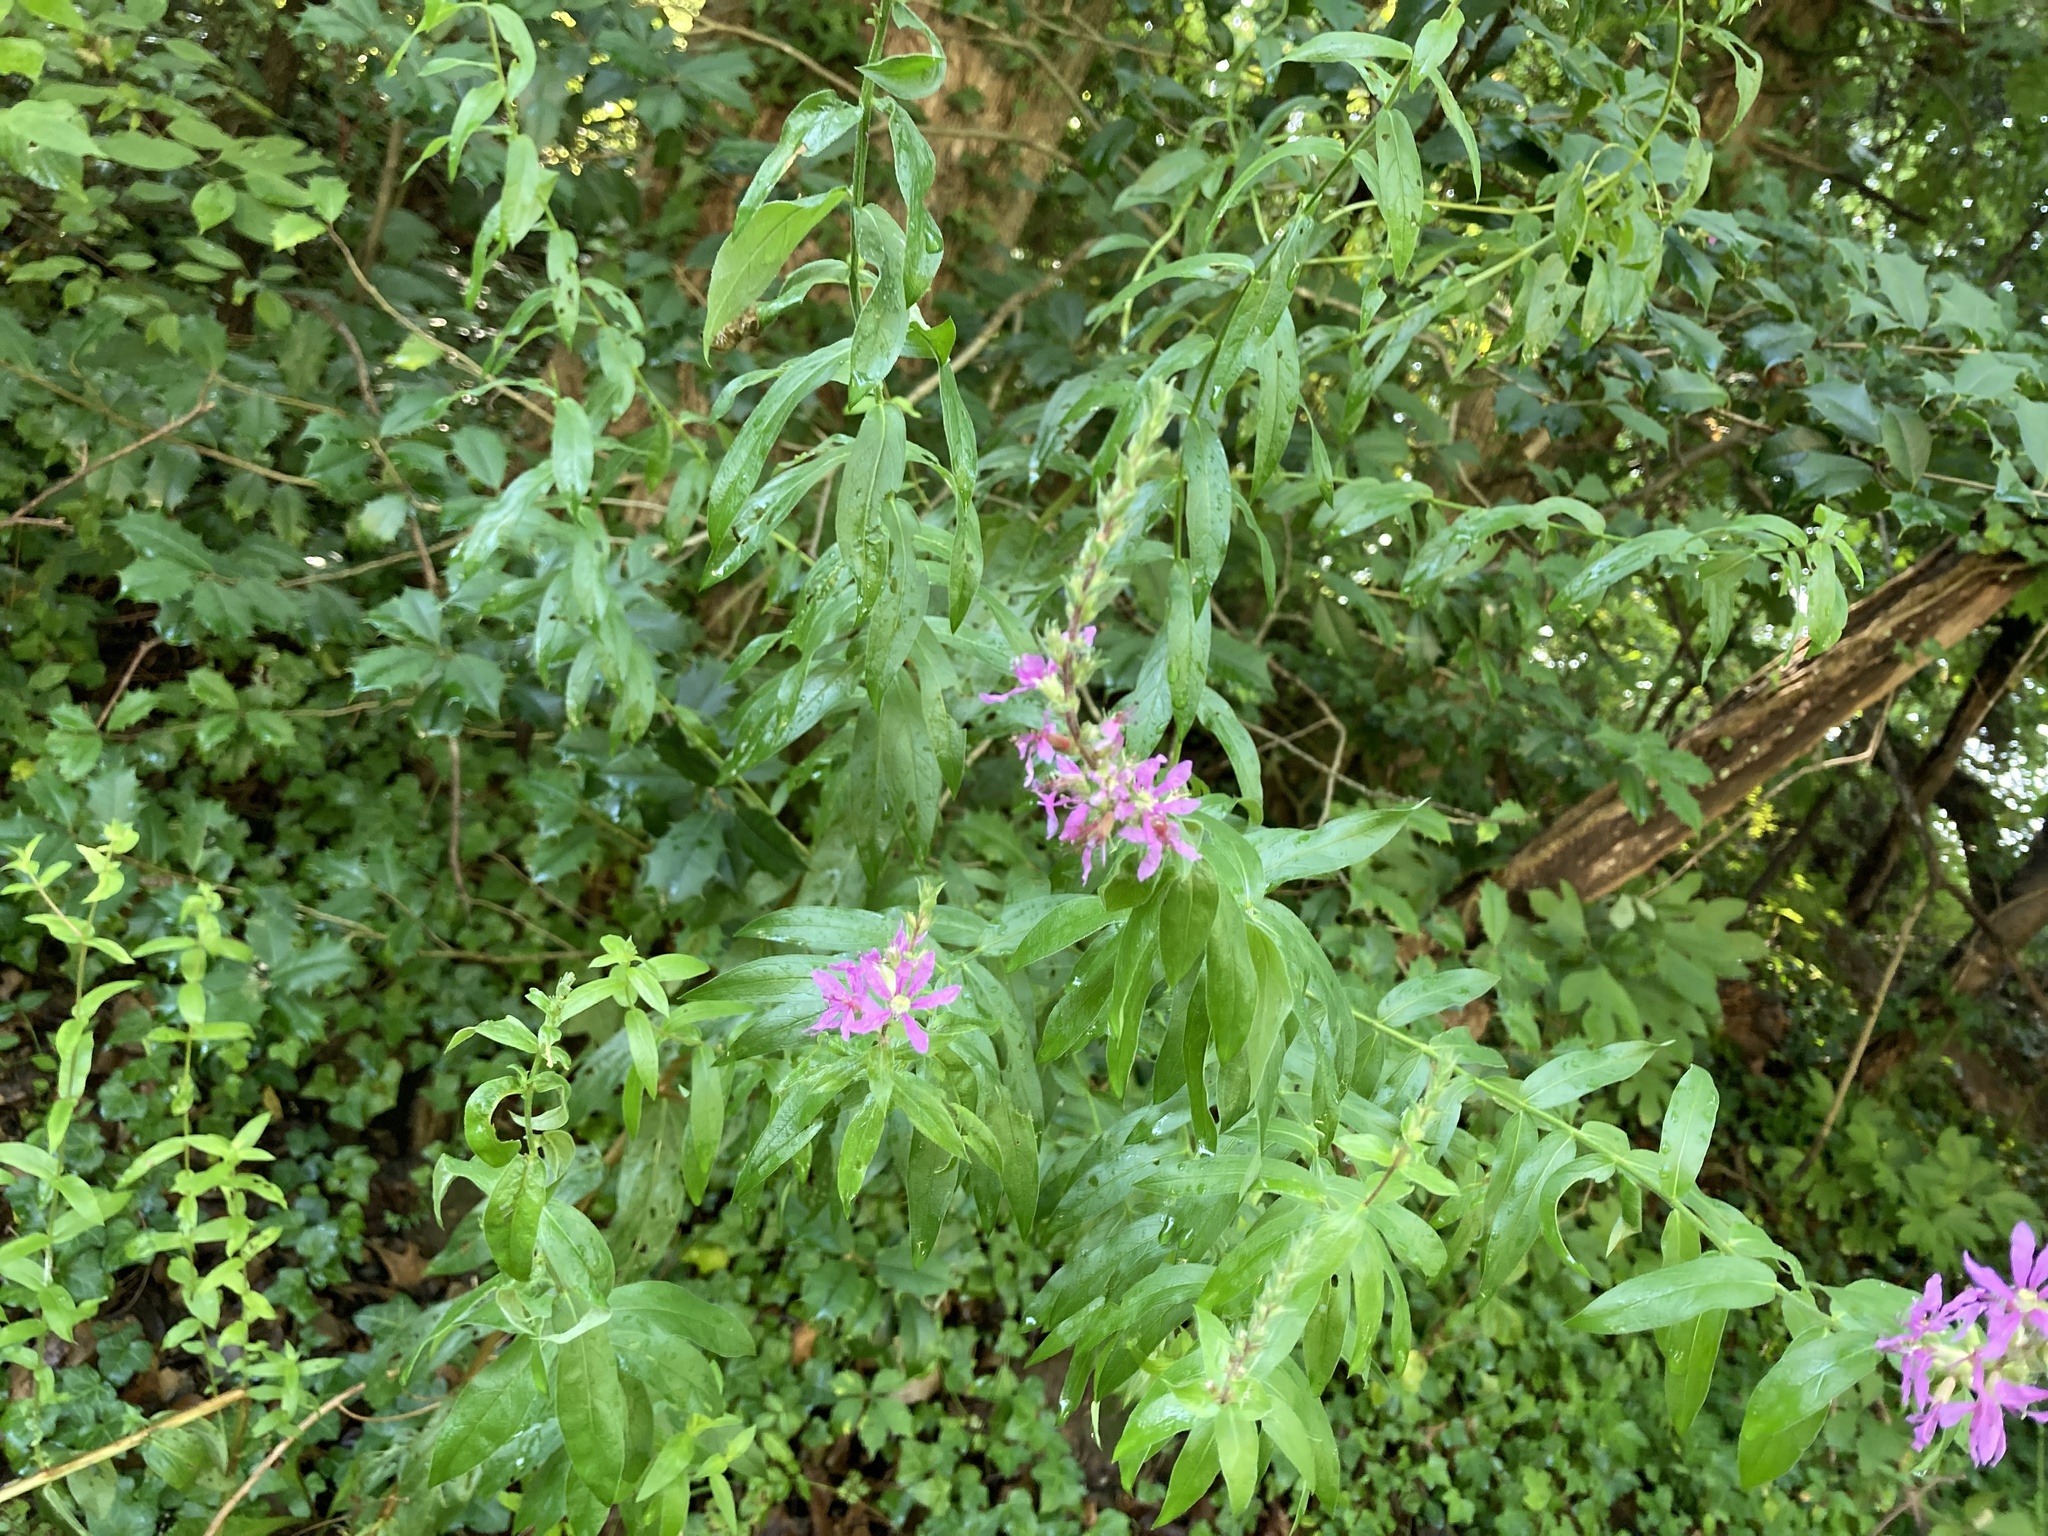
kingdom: Plantae
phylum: Tracheophyta
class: Magnoliopsida
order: Myrtales
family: Lythraceae
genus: Lythrum
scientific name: Lythrum salicaria
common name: Purple loosestrife
